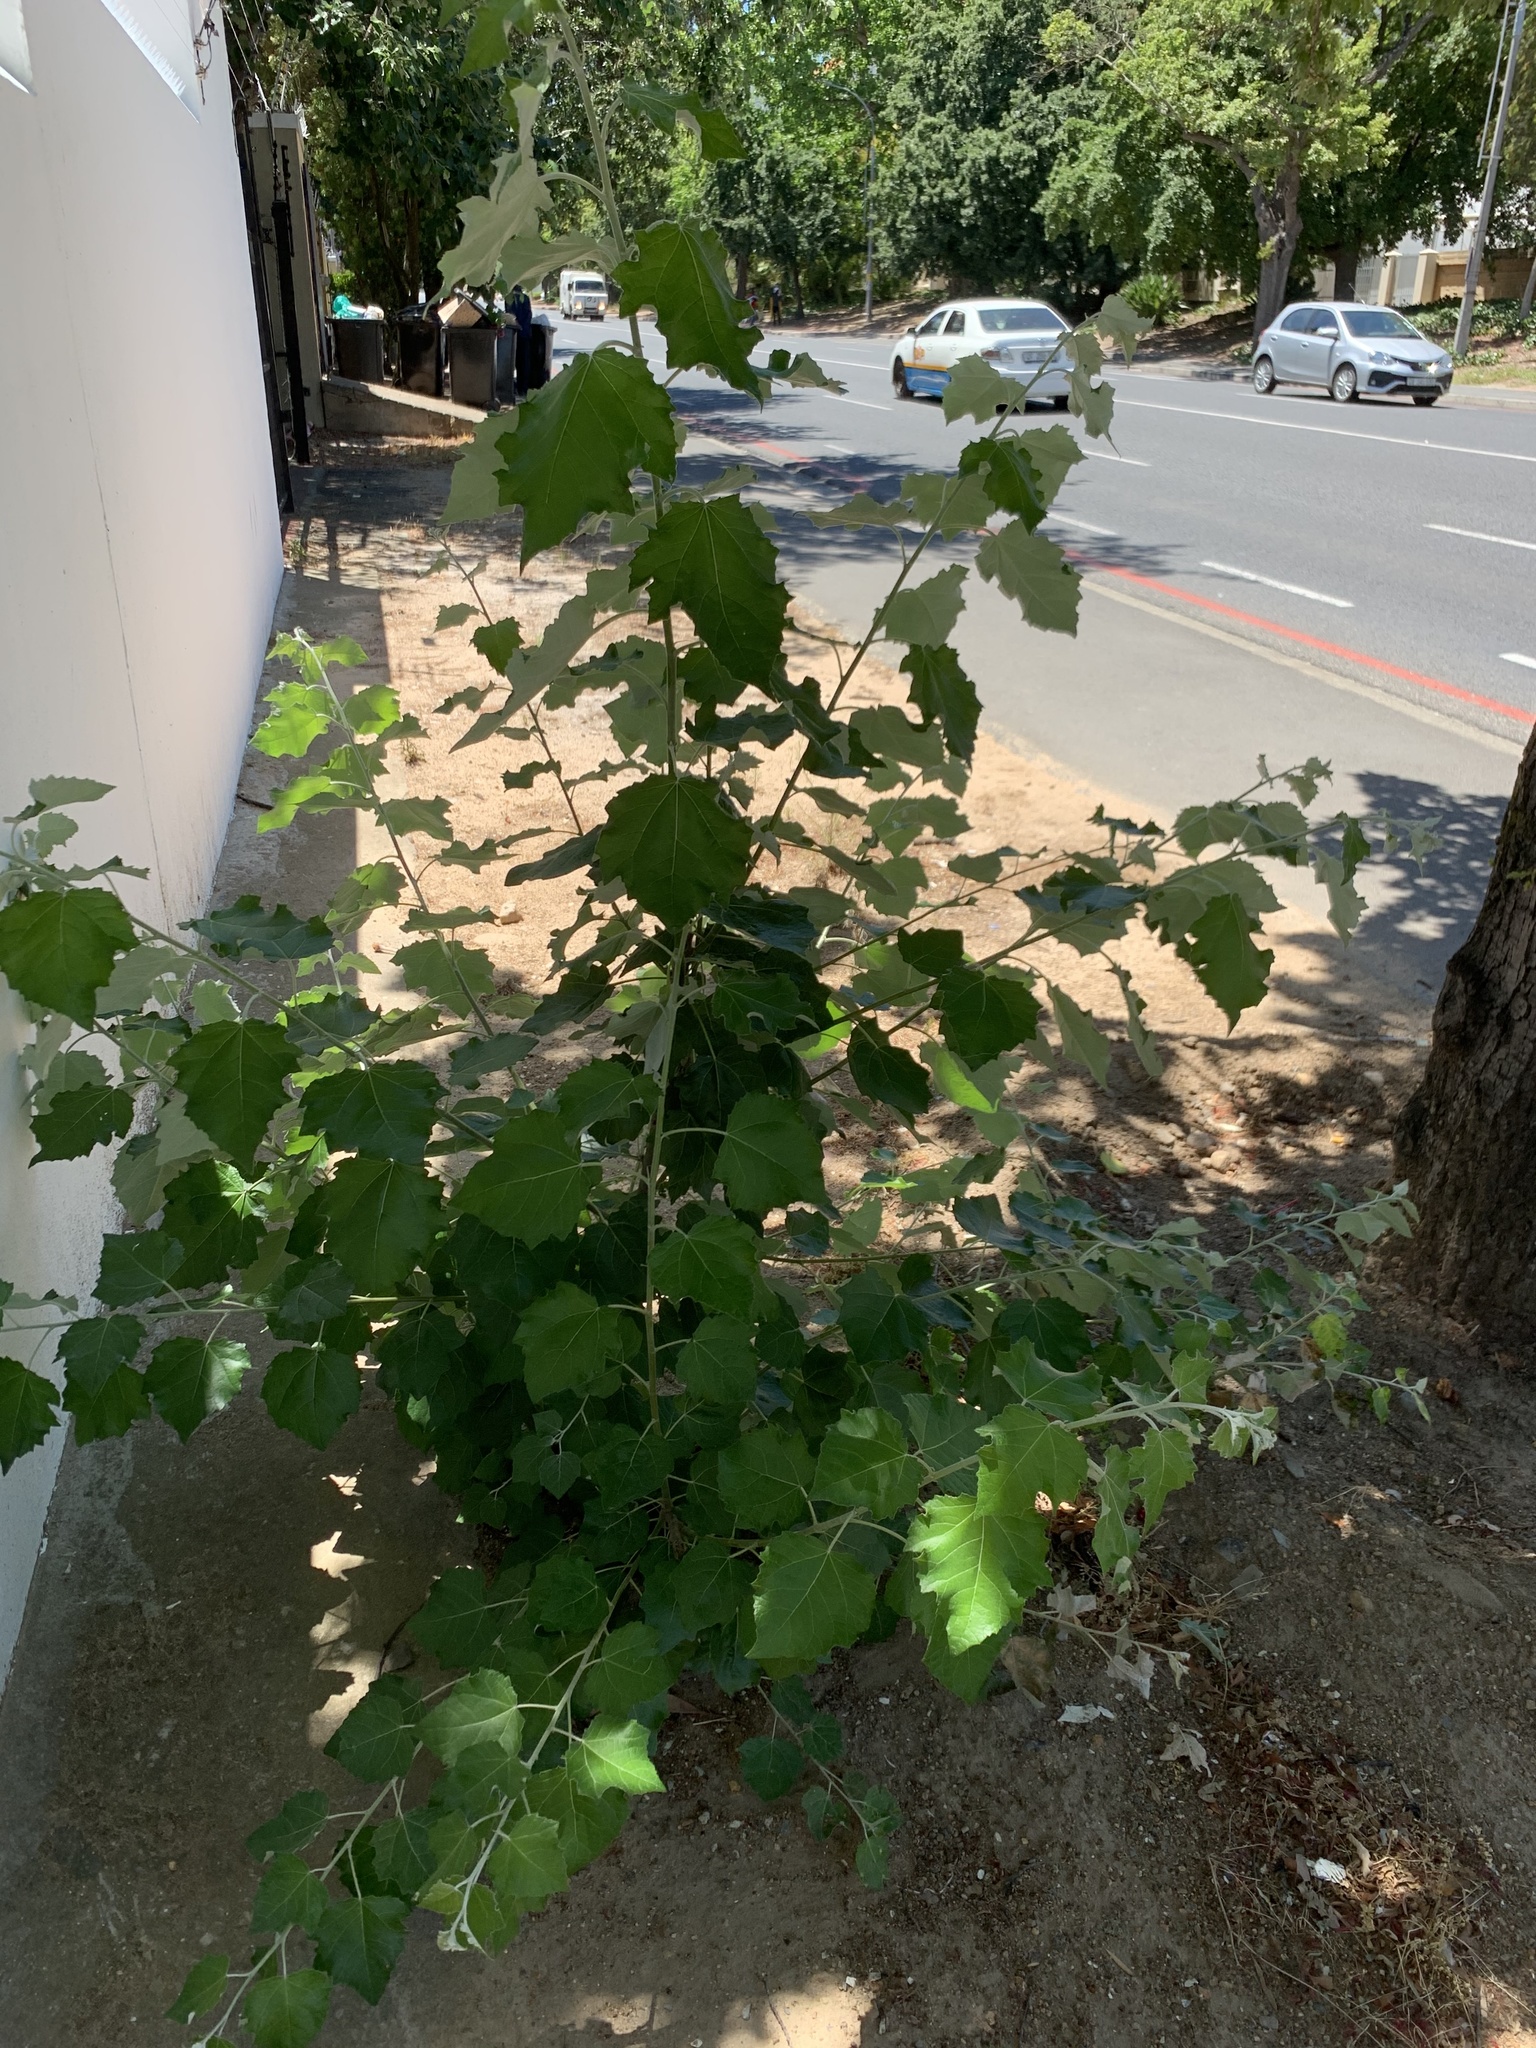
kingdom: Plantae
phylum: Tracheophyta
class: Magnoliopsida
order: Malpighiales
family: Salicaceae
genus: Populus
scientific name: Populus canescens
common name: Gray poplar
